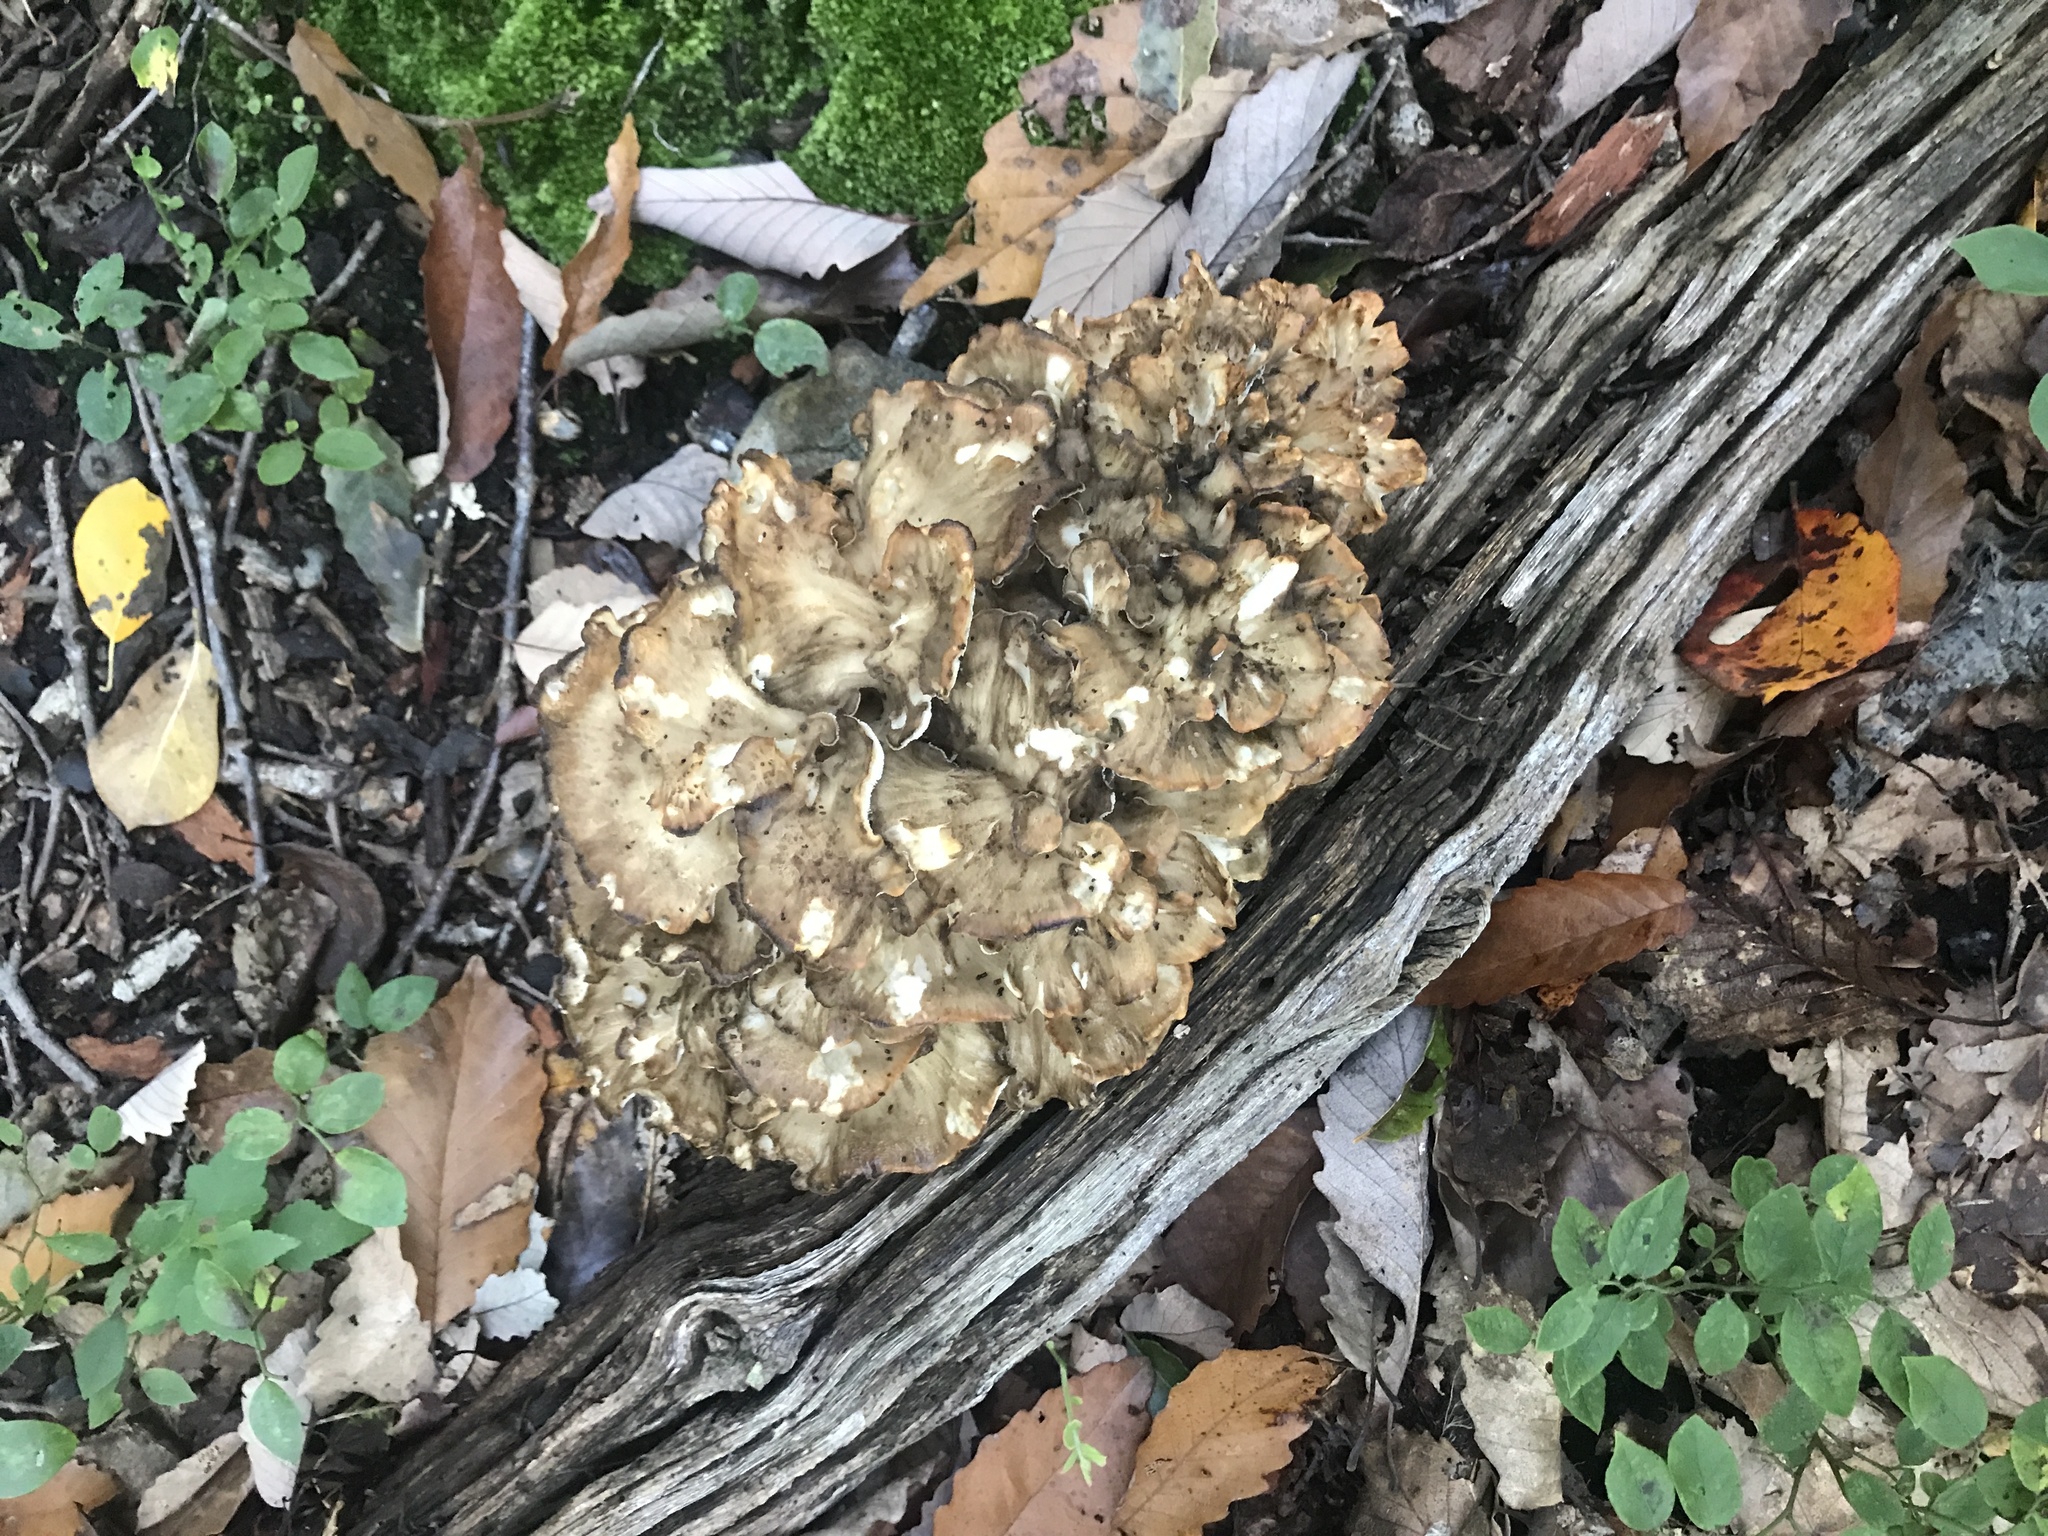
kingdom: Fungi
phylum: Basidiomycota
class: Agaricomycetes
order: Polyporales
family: Grifolaceae
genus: Grifola
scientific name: Grifola frondosa
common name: Hen of the woods
